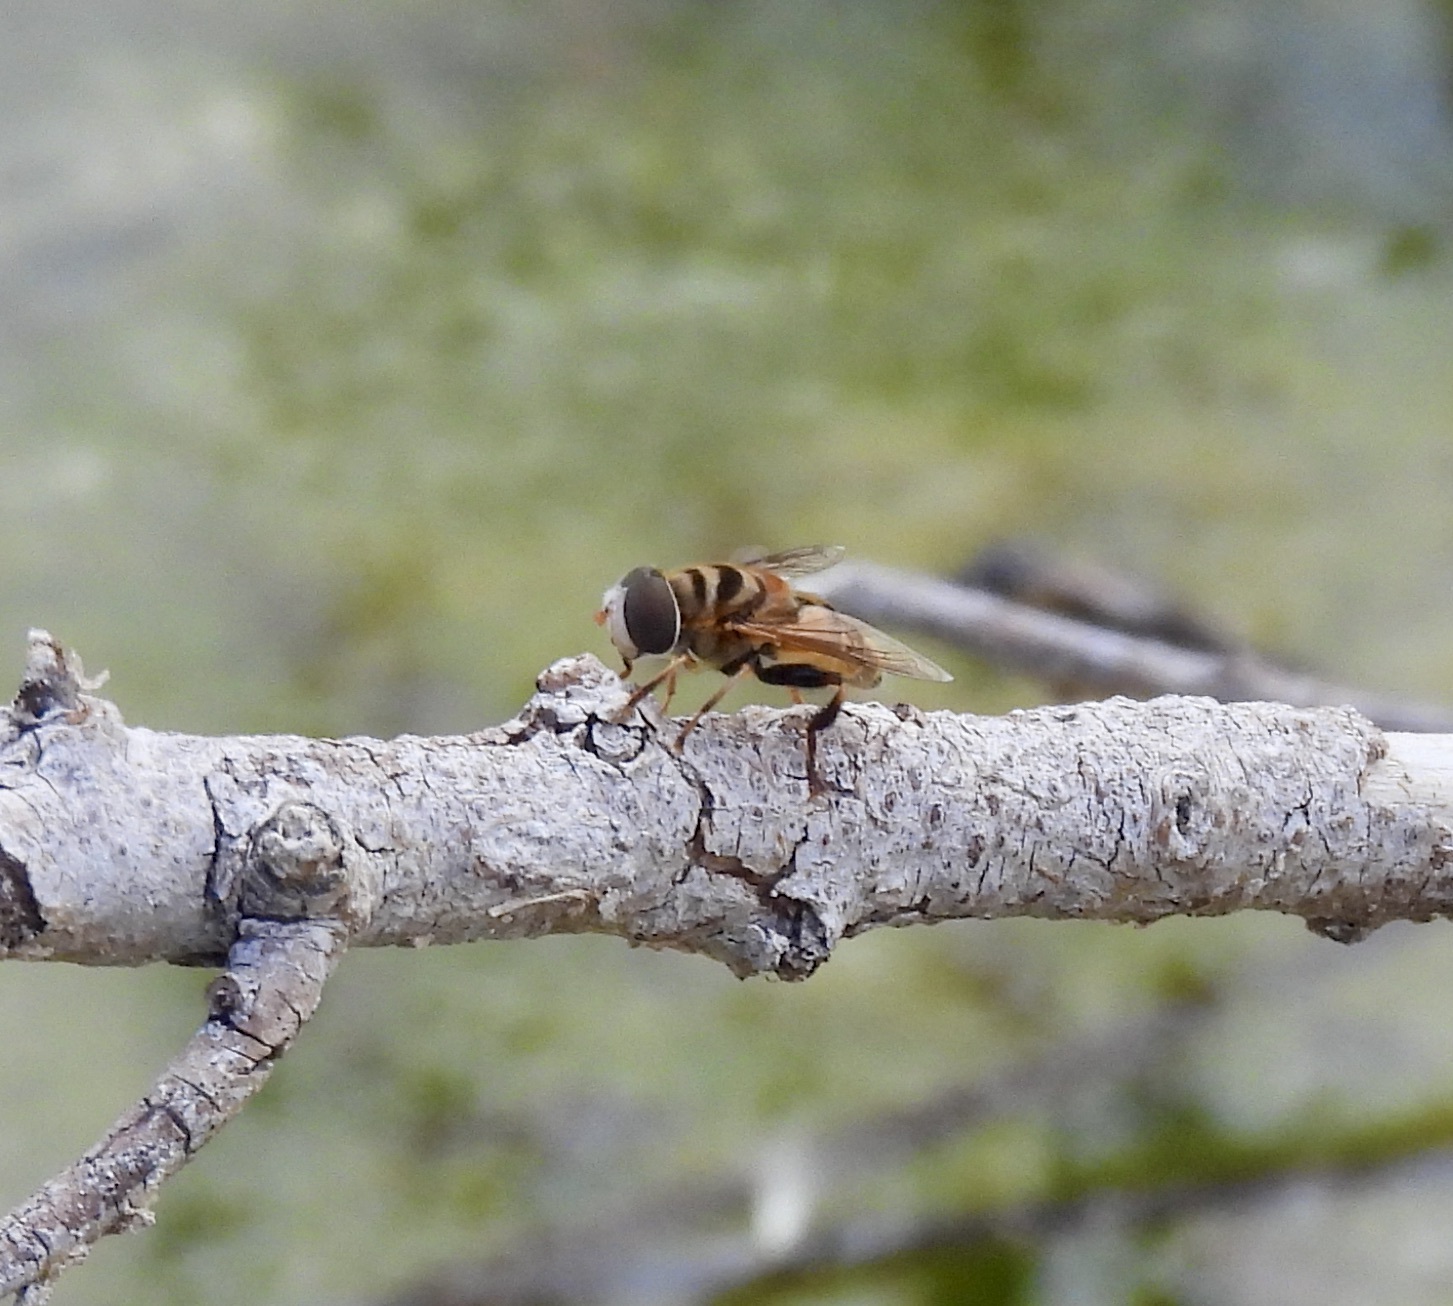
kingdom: Animalia
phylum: Arthropoda
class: Insecta
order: Diptera
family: Syrphidae
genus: Palpada
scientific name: Palpada vinetorum
